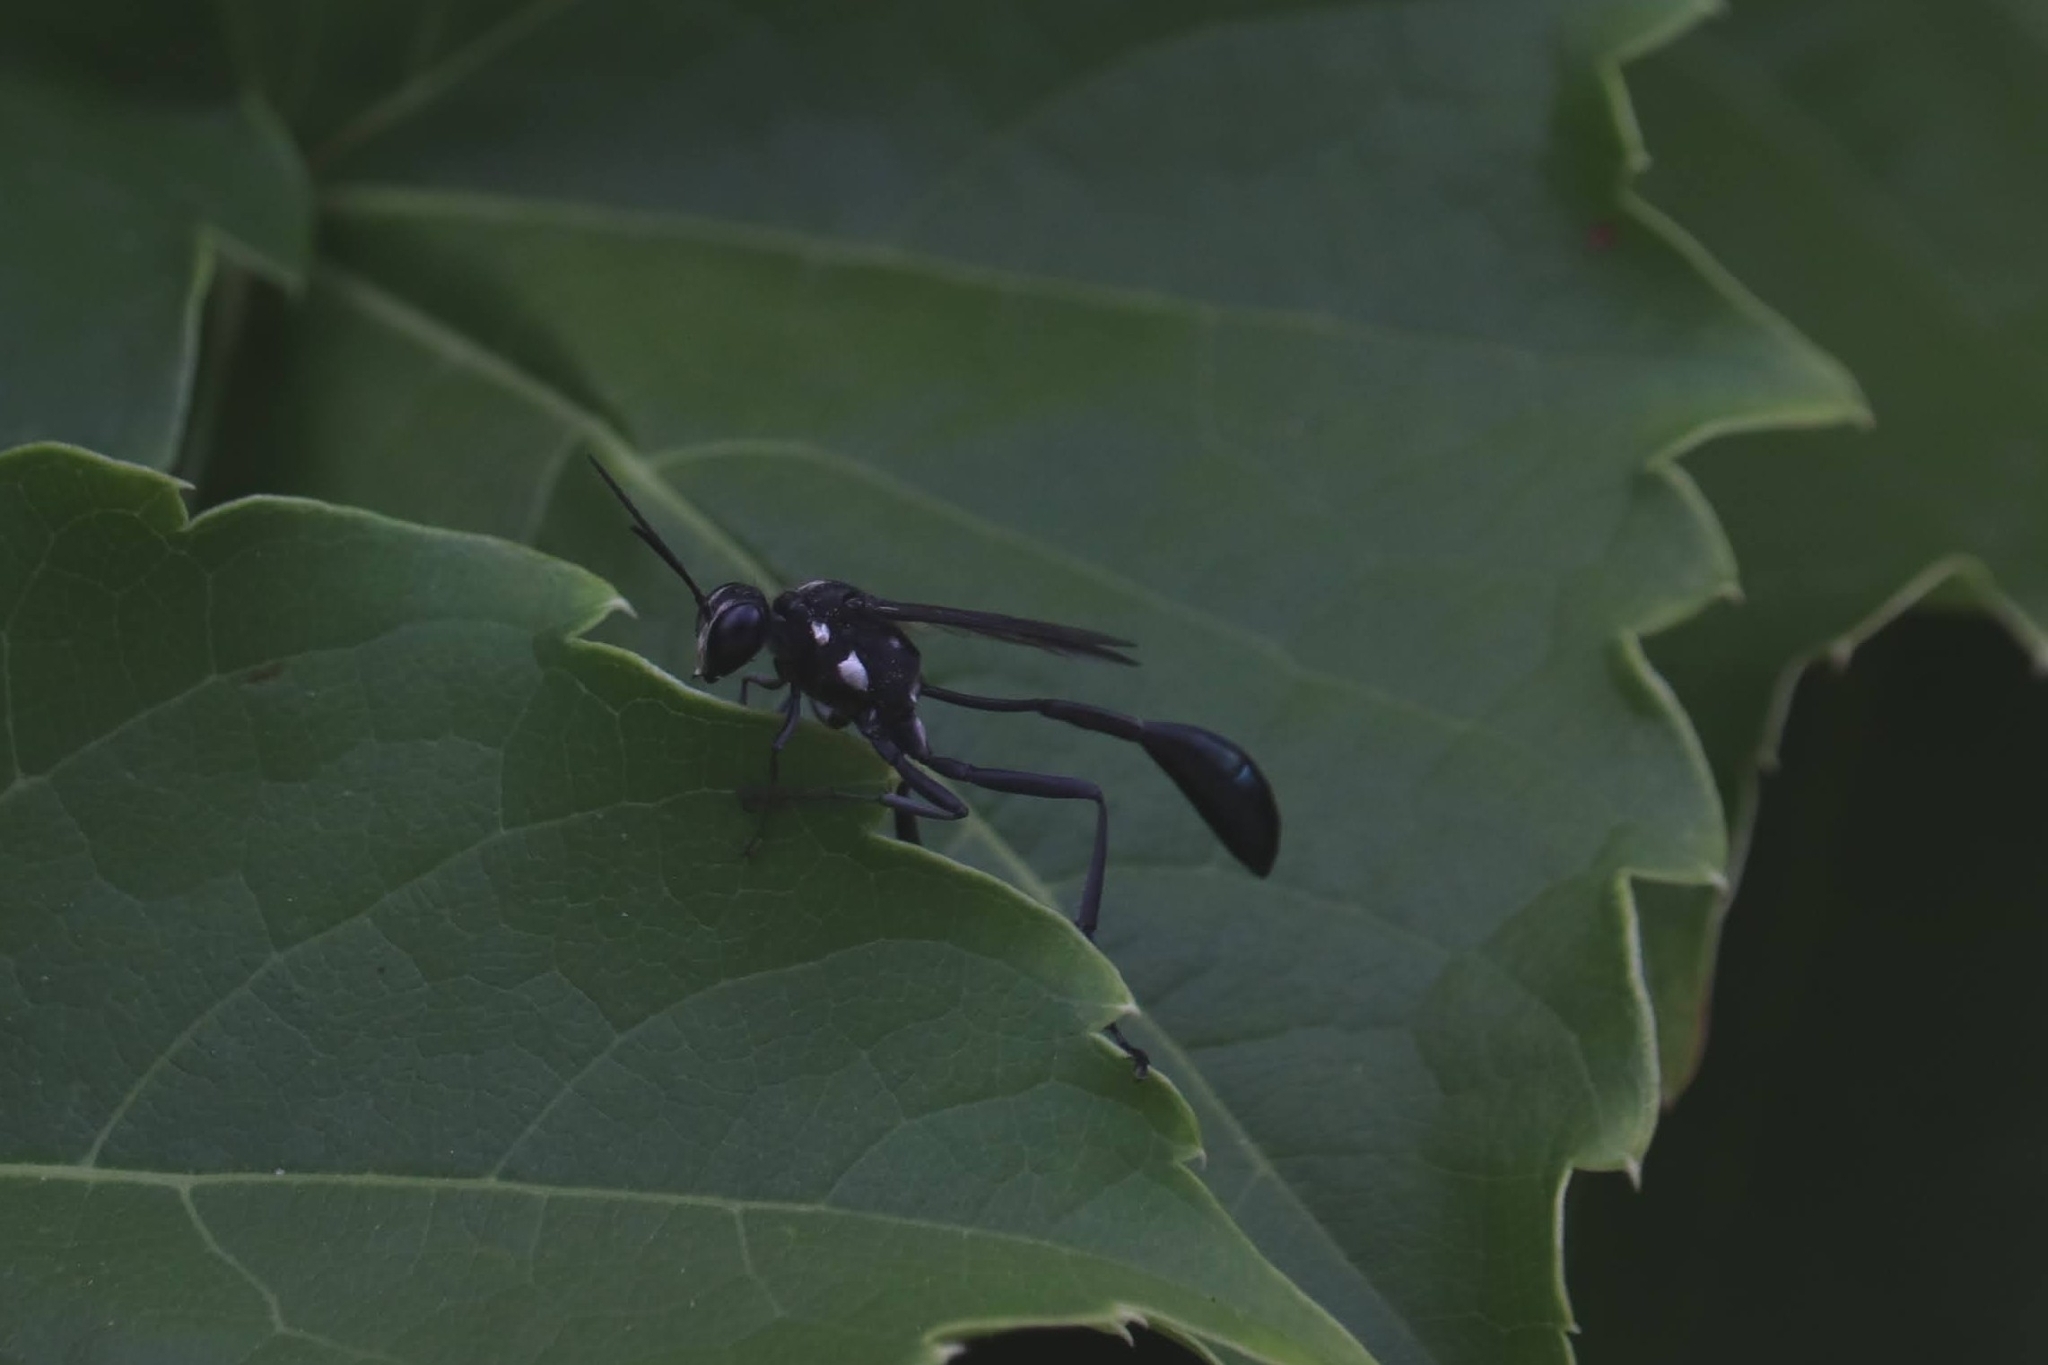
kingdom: Animalia
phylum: Arthropoda
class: Insecta
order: Hymenoptera
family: Sphecidae
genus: Eremnophila
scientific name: Eremnophila aureonotata
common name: Gold-marked thread-waisted wasp
